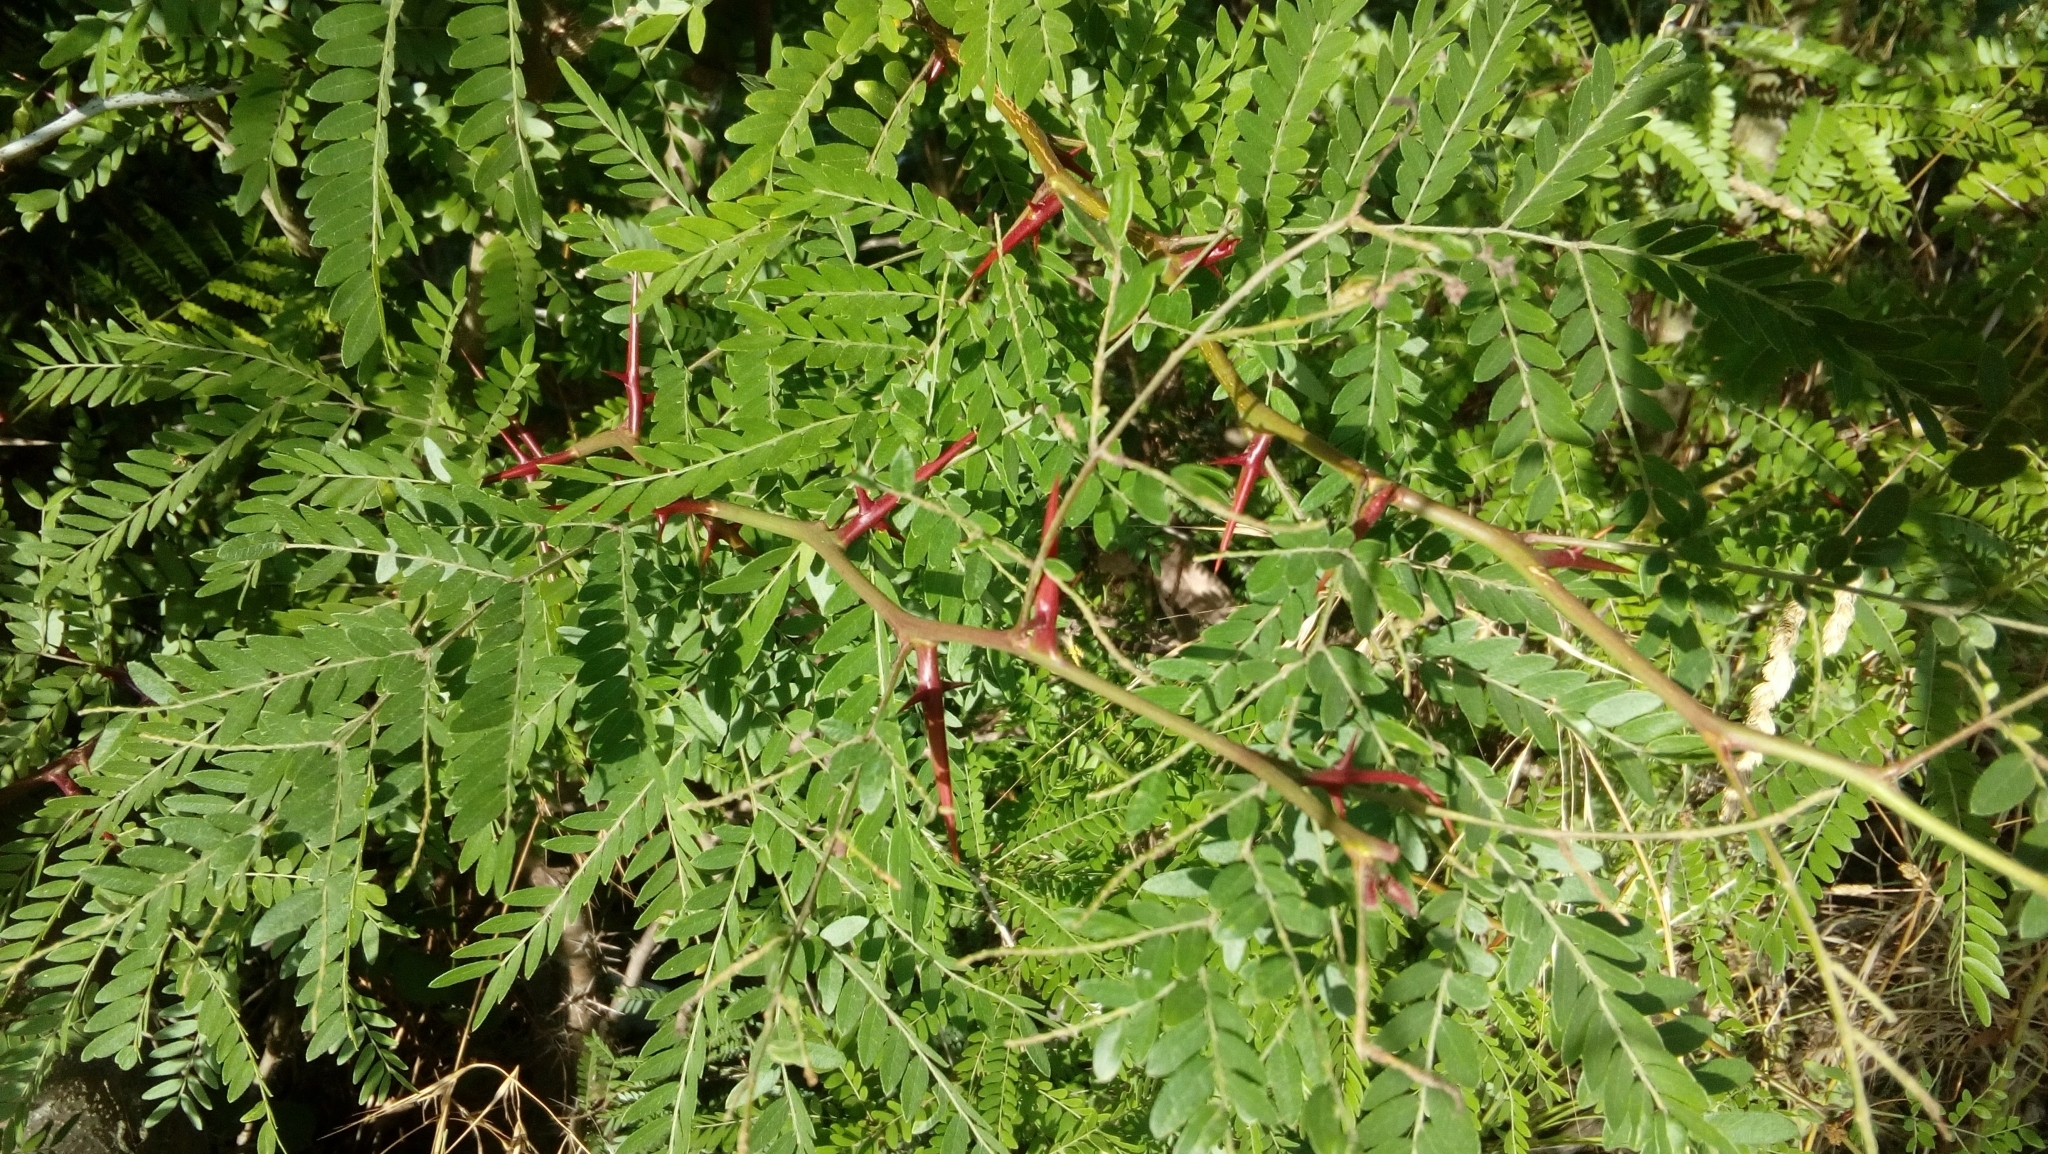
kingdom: Plantae
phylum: Tracheophyta
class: Magnoliopsida
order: Fabales
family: Fabaceae
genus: Gleditsia
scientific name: Gleditsia triacanthos
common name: Common honeylocust
